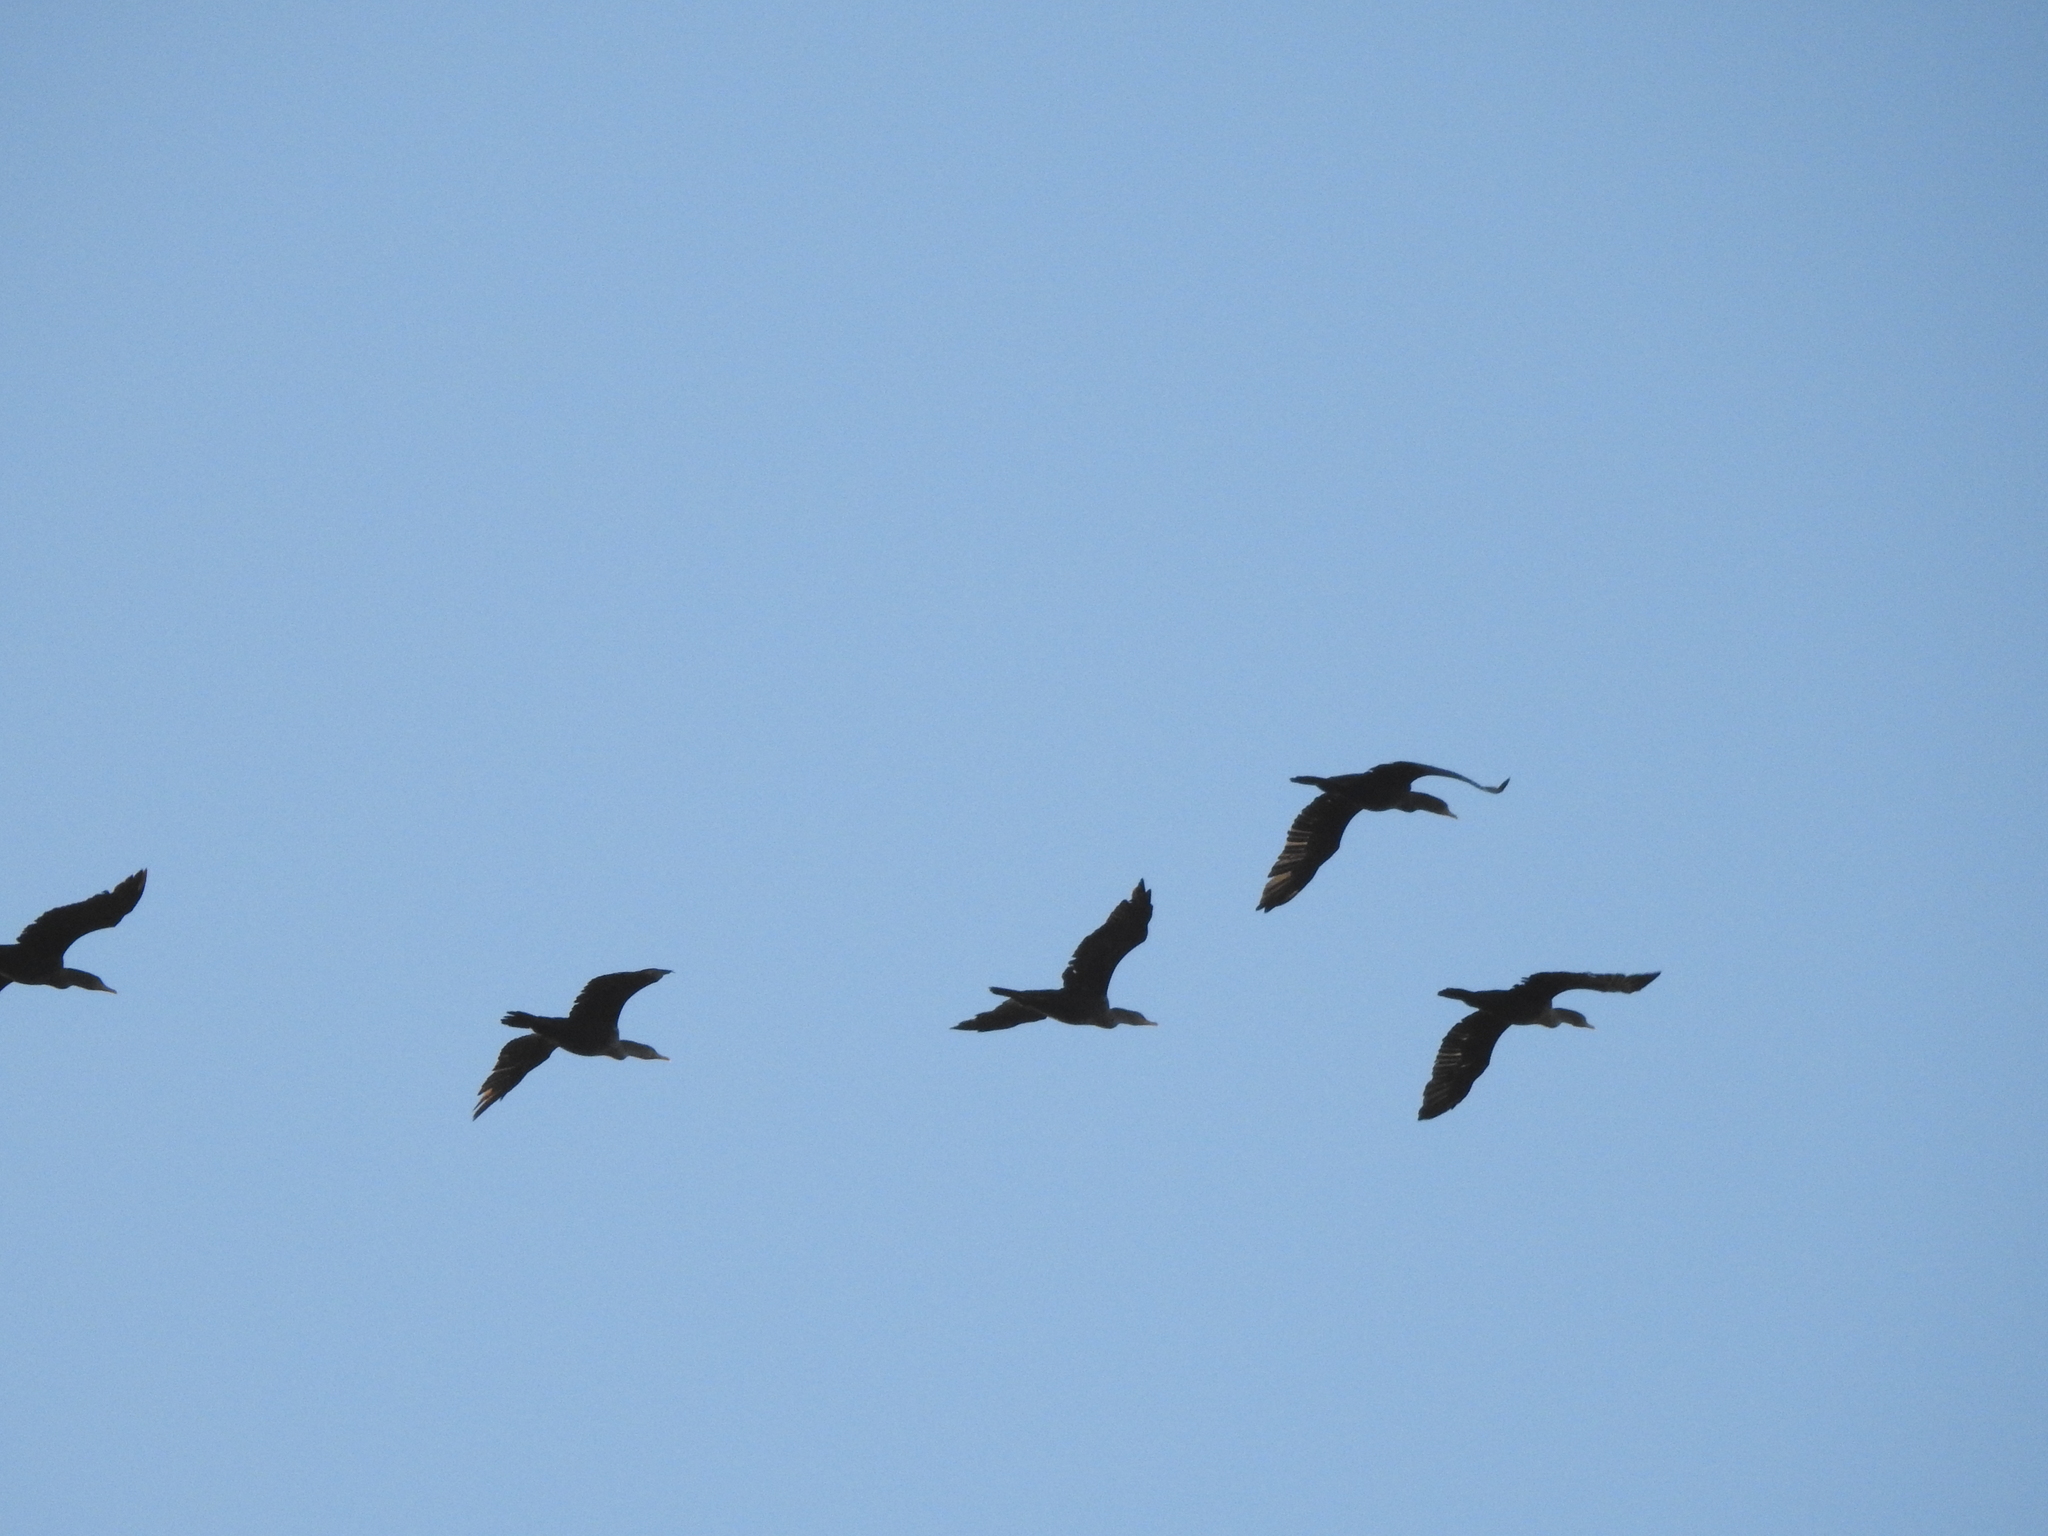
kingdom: Animalia
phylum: Chordata
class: Aves
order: Suliformes
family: Phalacrocoracidae
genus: Phalacrocorax
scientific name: Phalacrocorax auritus
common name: Double-crested cormorant
